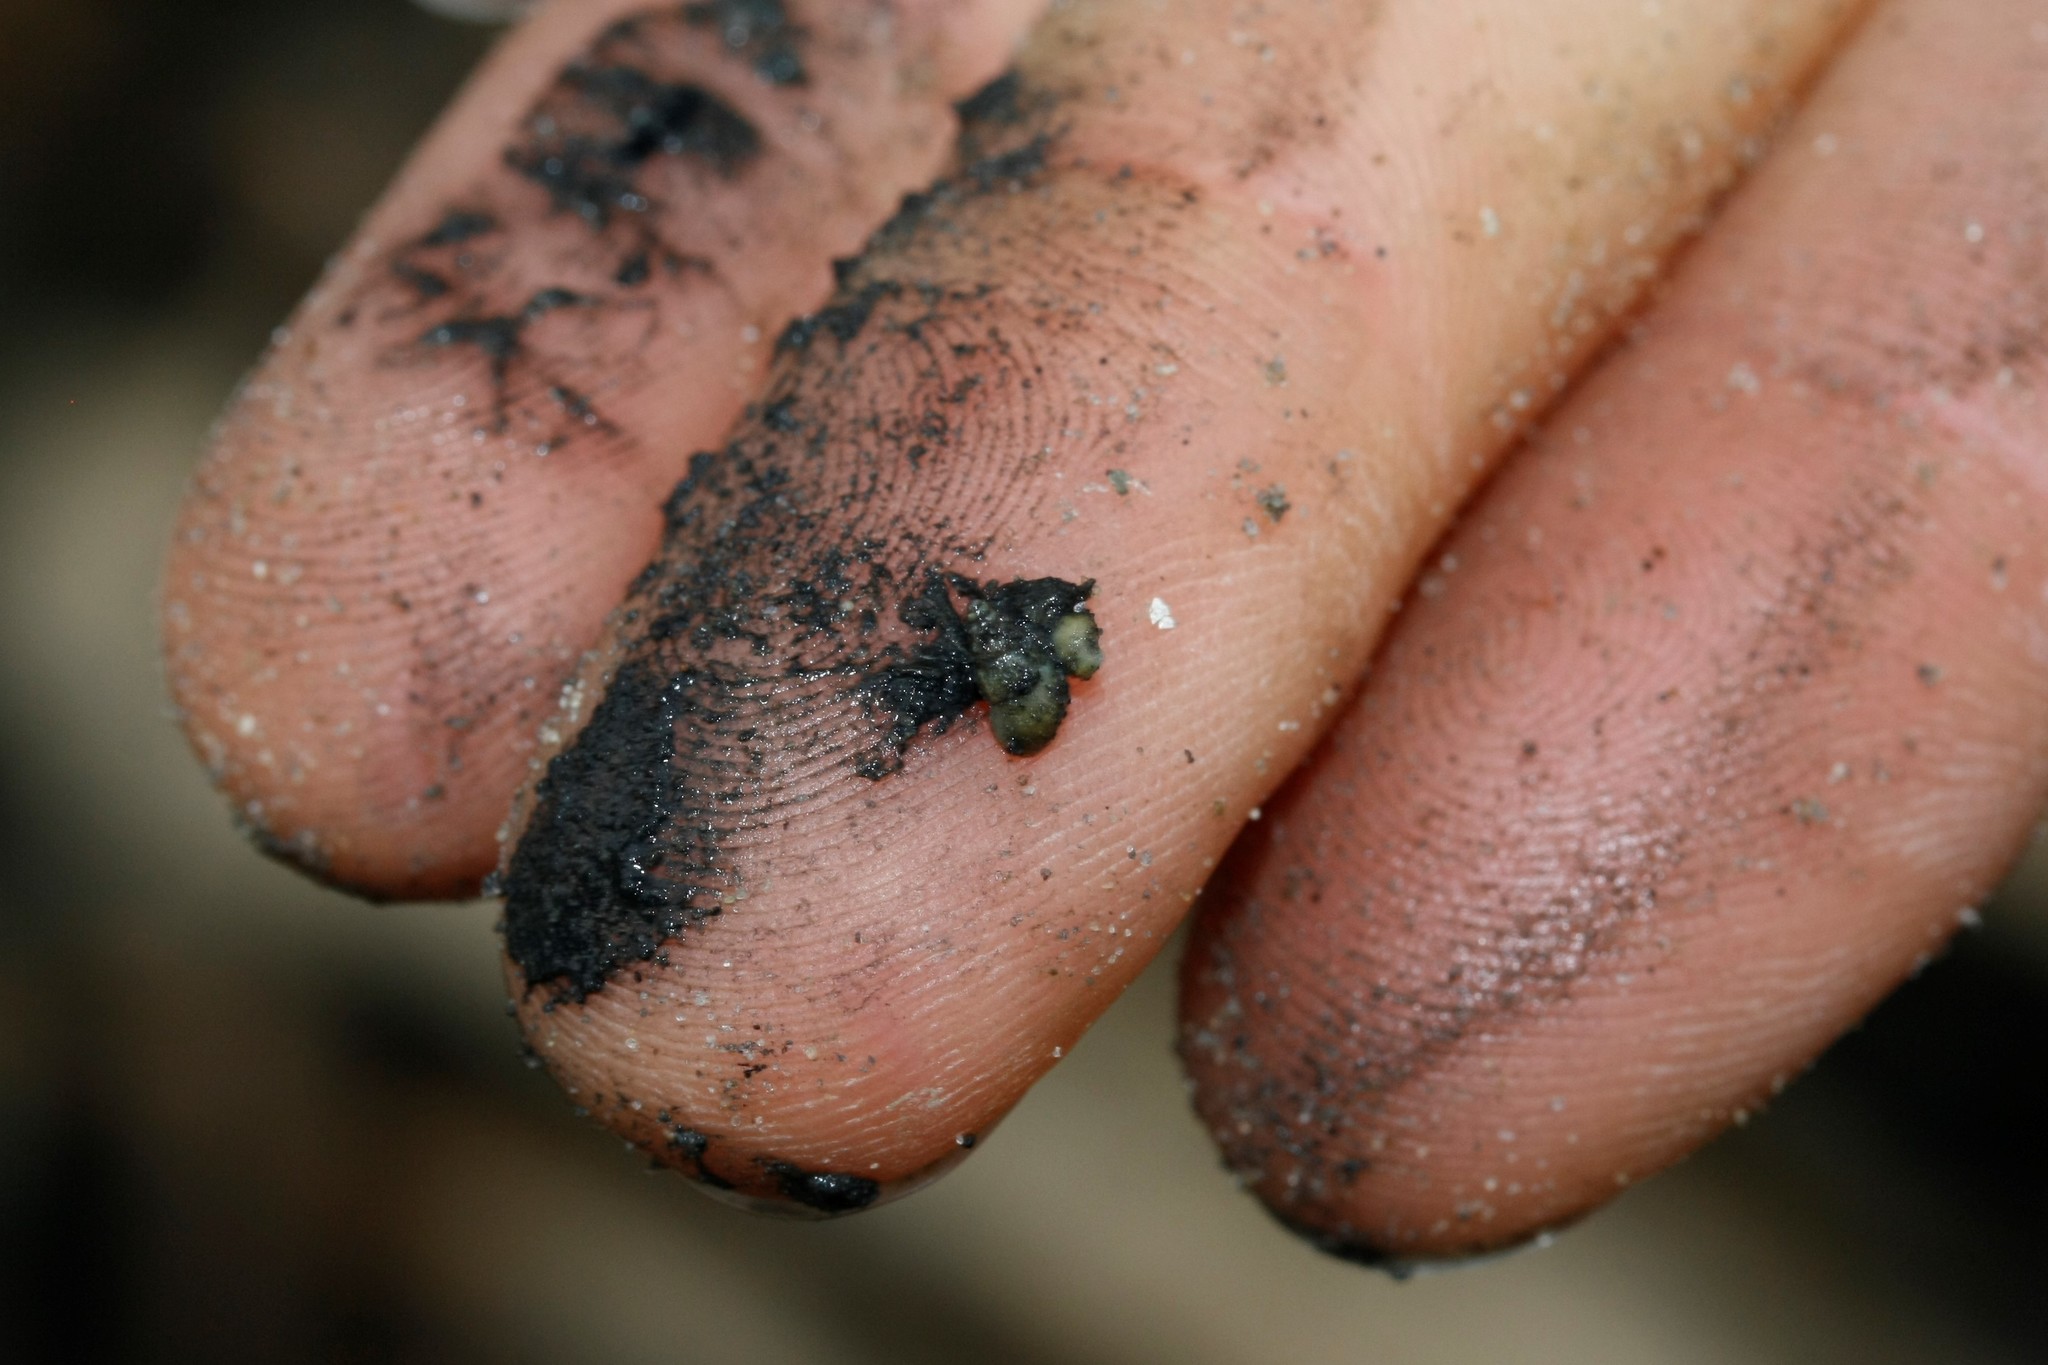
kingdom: Animalia
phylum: Mollusca
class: Gastropoda
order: Littorinimorpha
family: Hydrobiidae
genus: Peringia
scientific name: Peringia ulvae
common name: Laver spire shell
